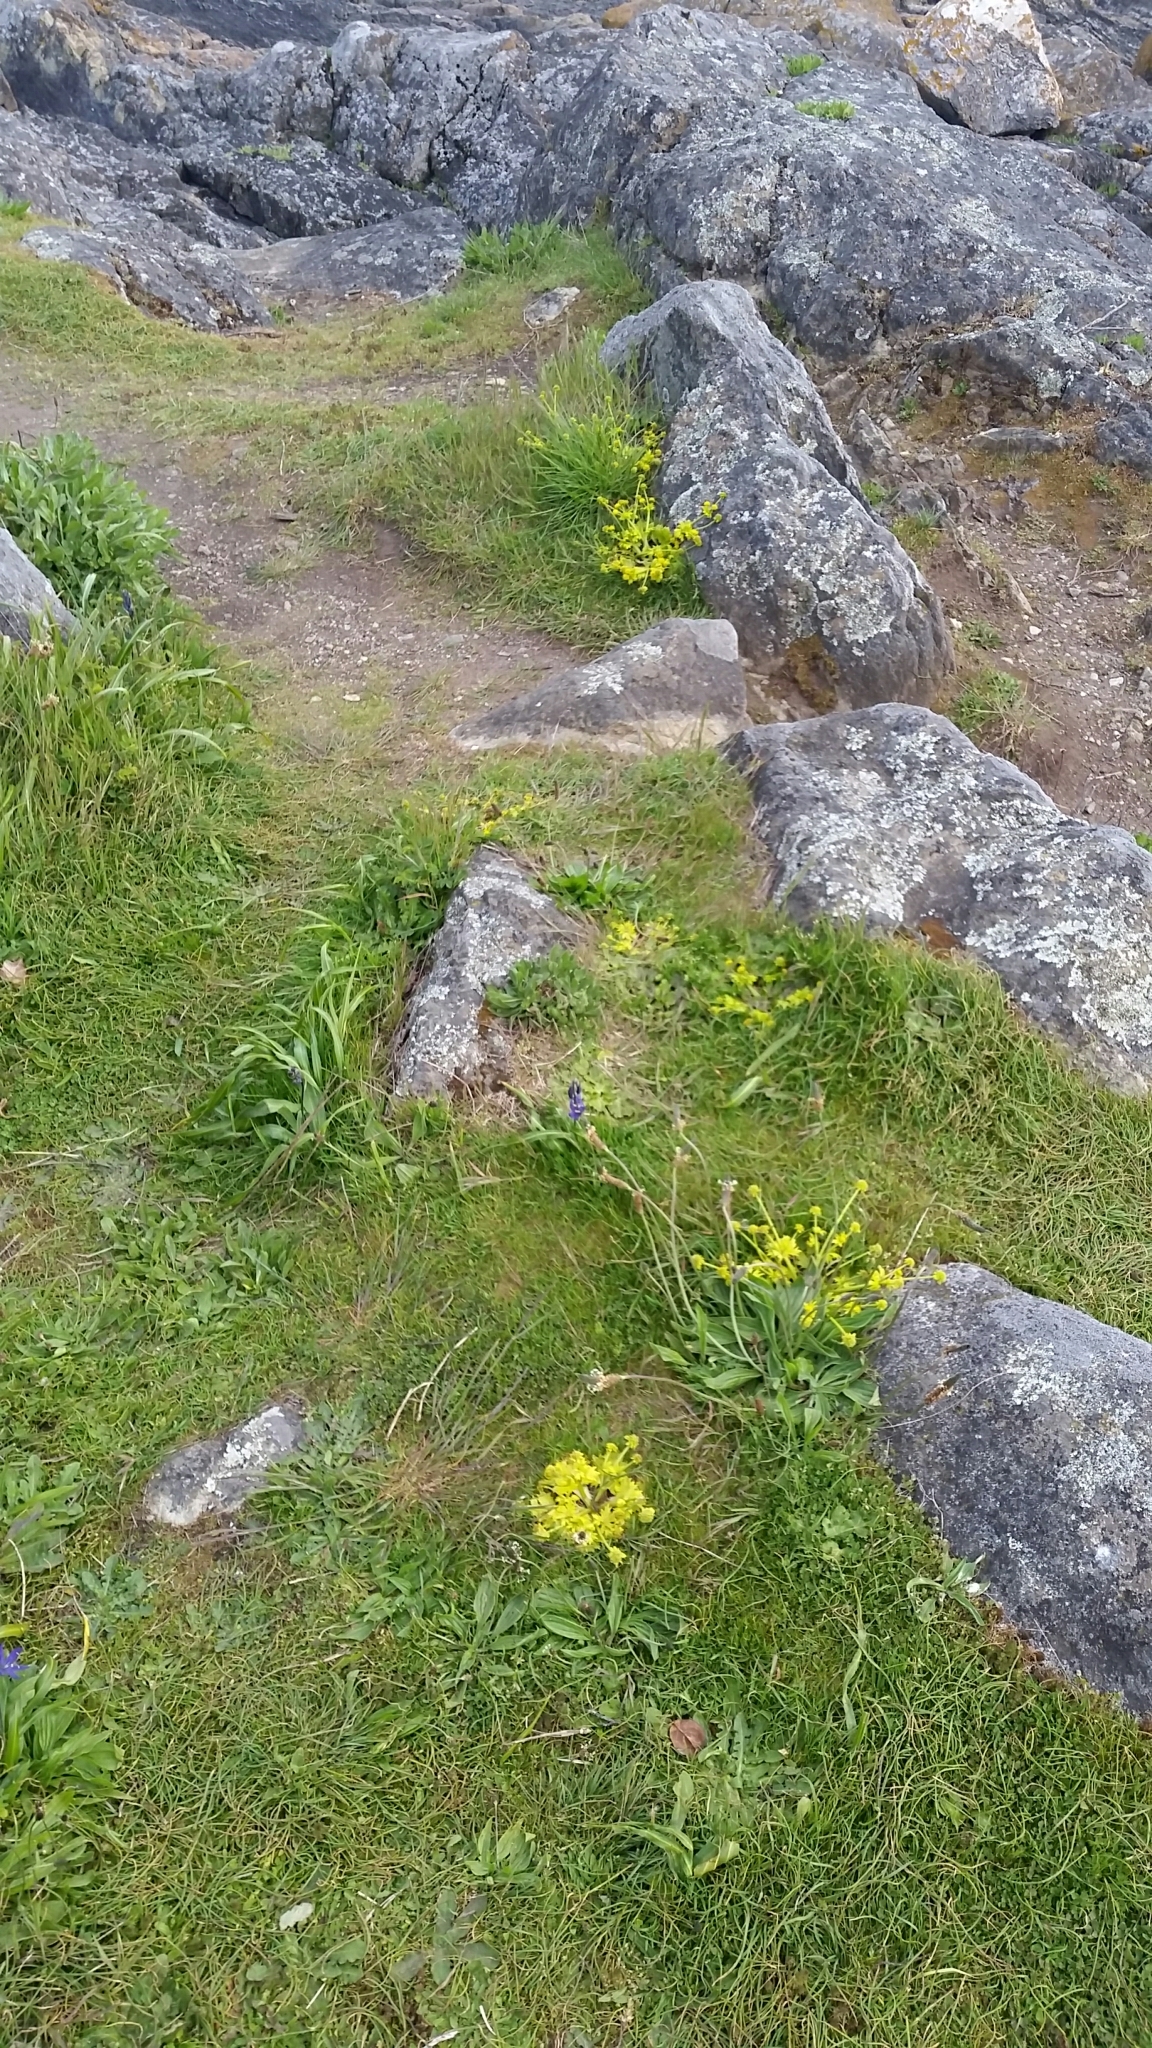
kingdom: Plantae
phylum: Tracheophyta
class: Magnoliopsida
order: Apiales
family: Apiaceae
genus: Sanicula
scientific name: Sanicula arctopoides
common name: Footsteps-of-spring
